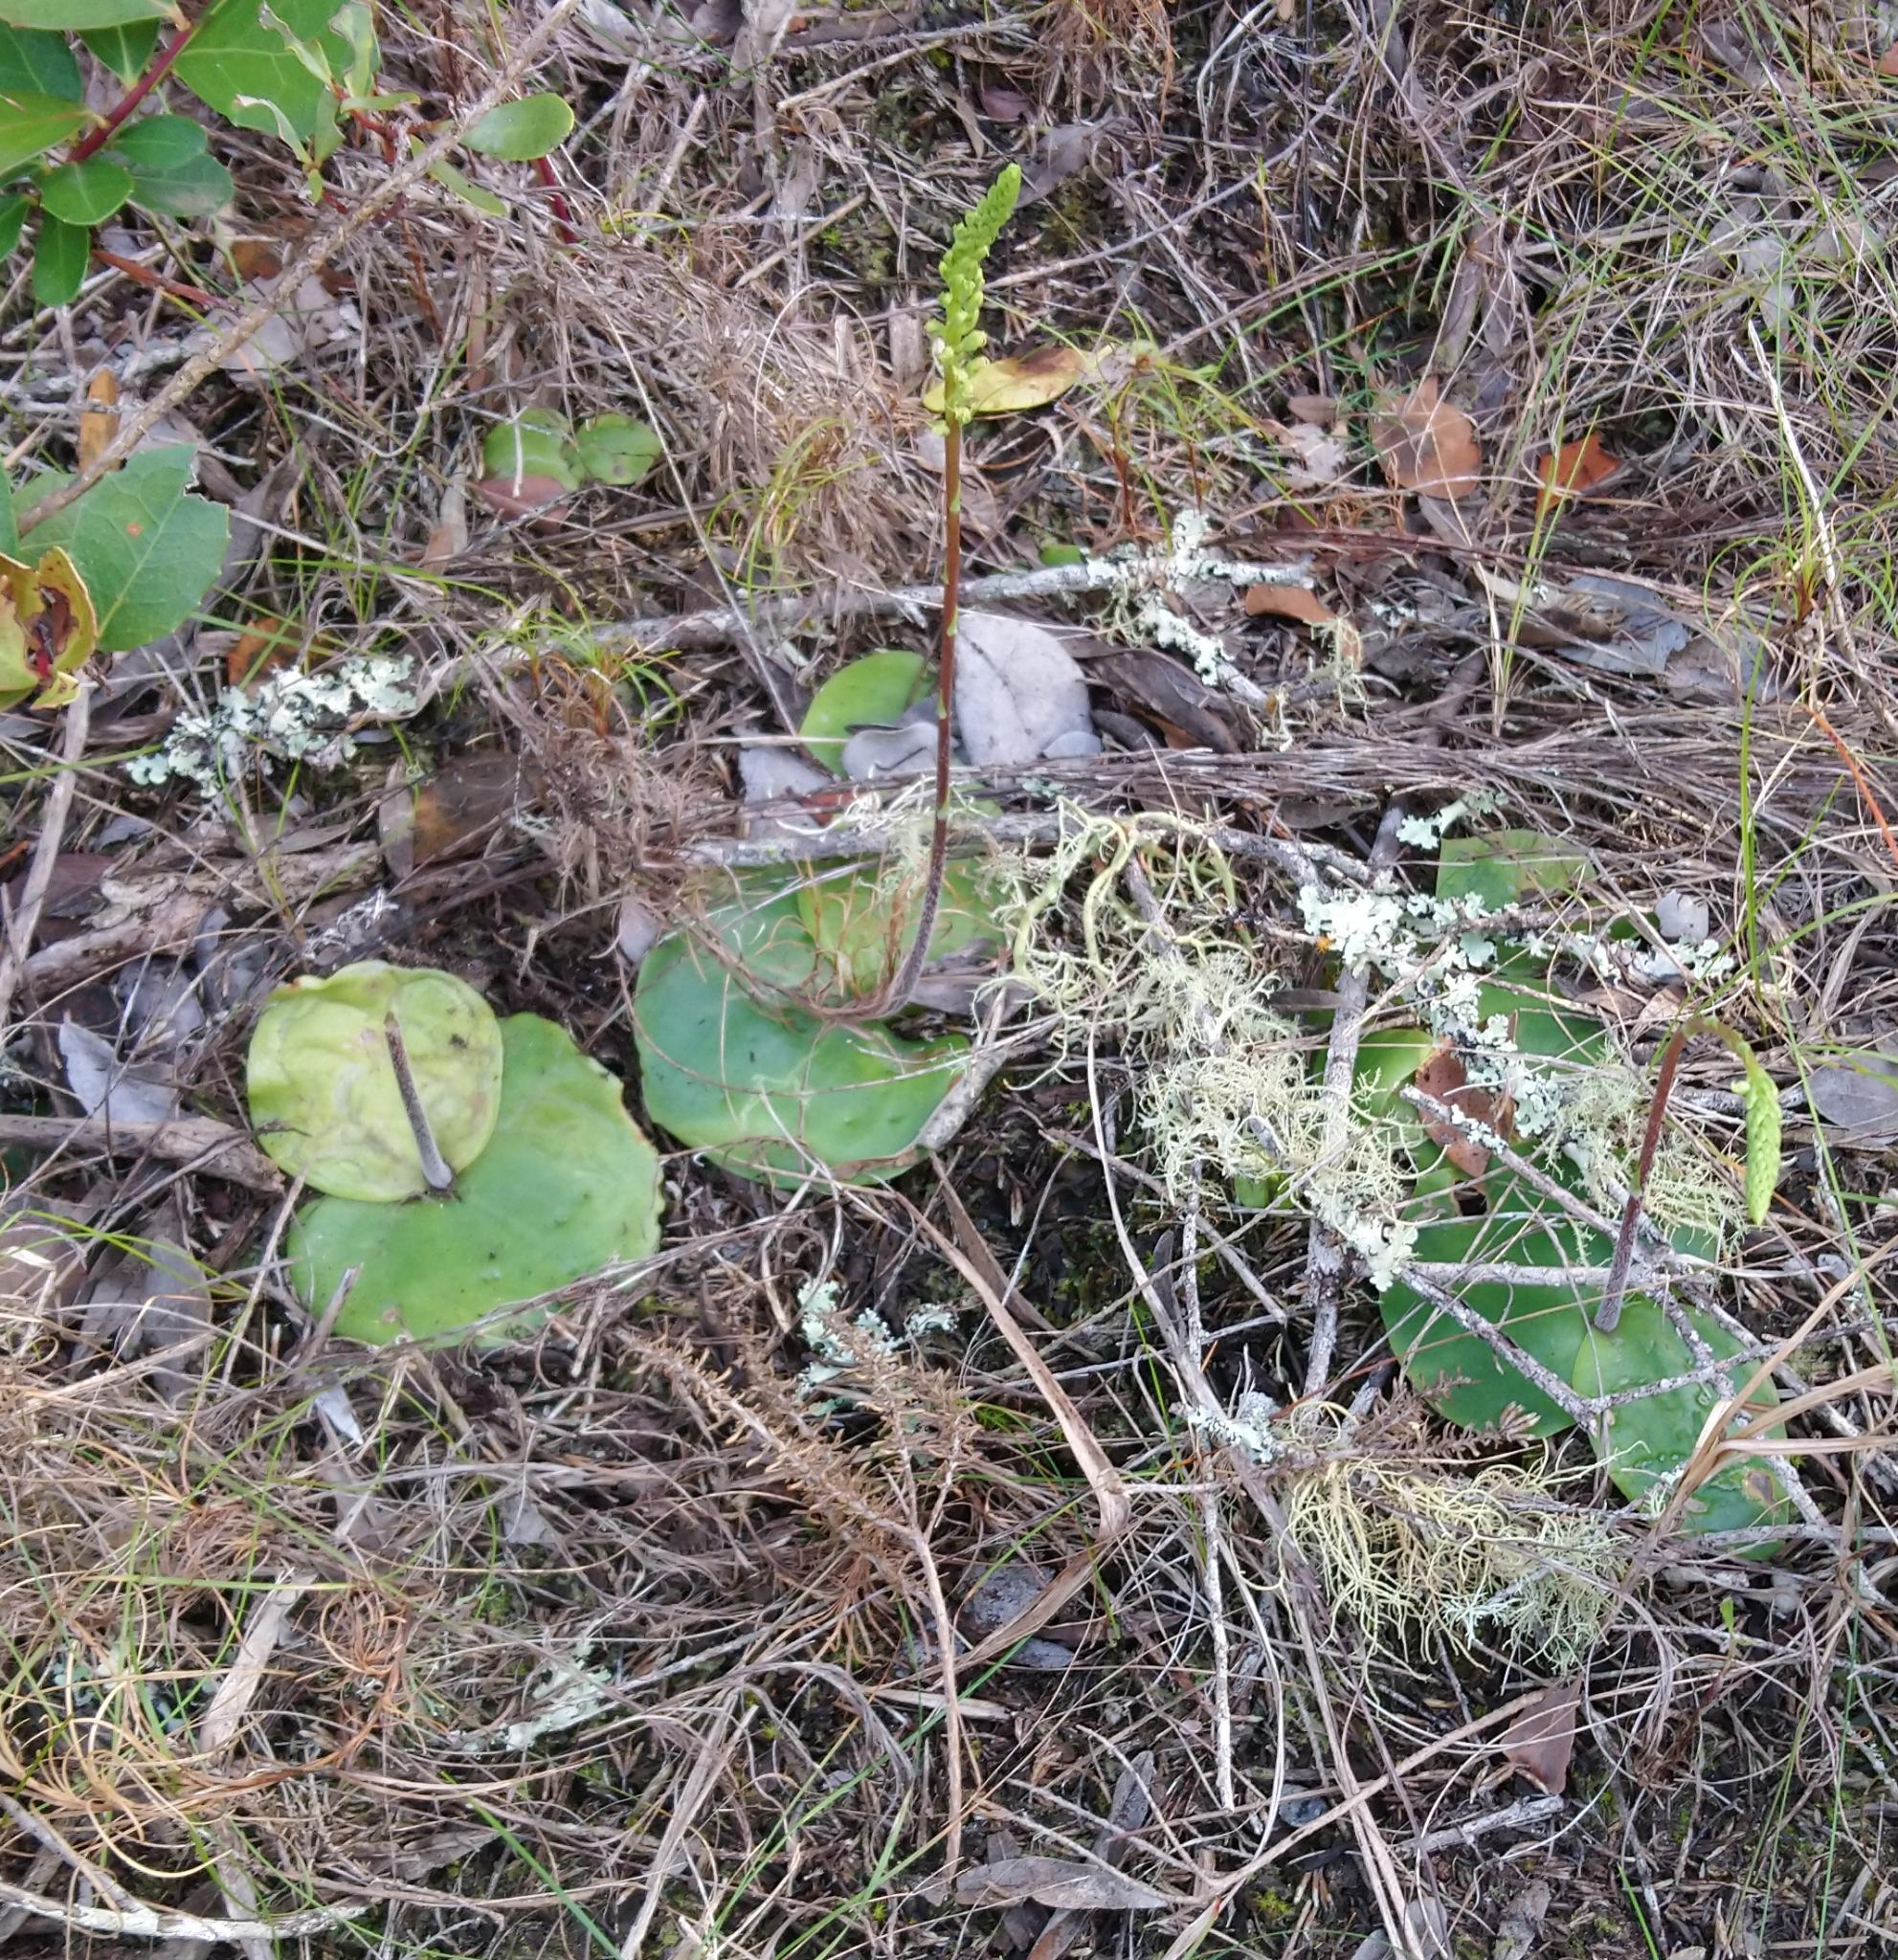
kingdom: Plantae
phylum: Tracheophyta
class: Liliopsida
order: Asparagales
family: Orchidaceae
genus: Holothrix
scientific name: Holothrix burchellii
